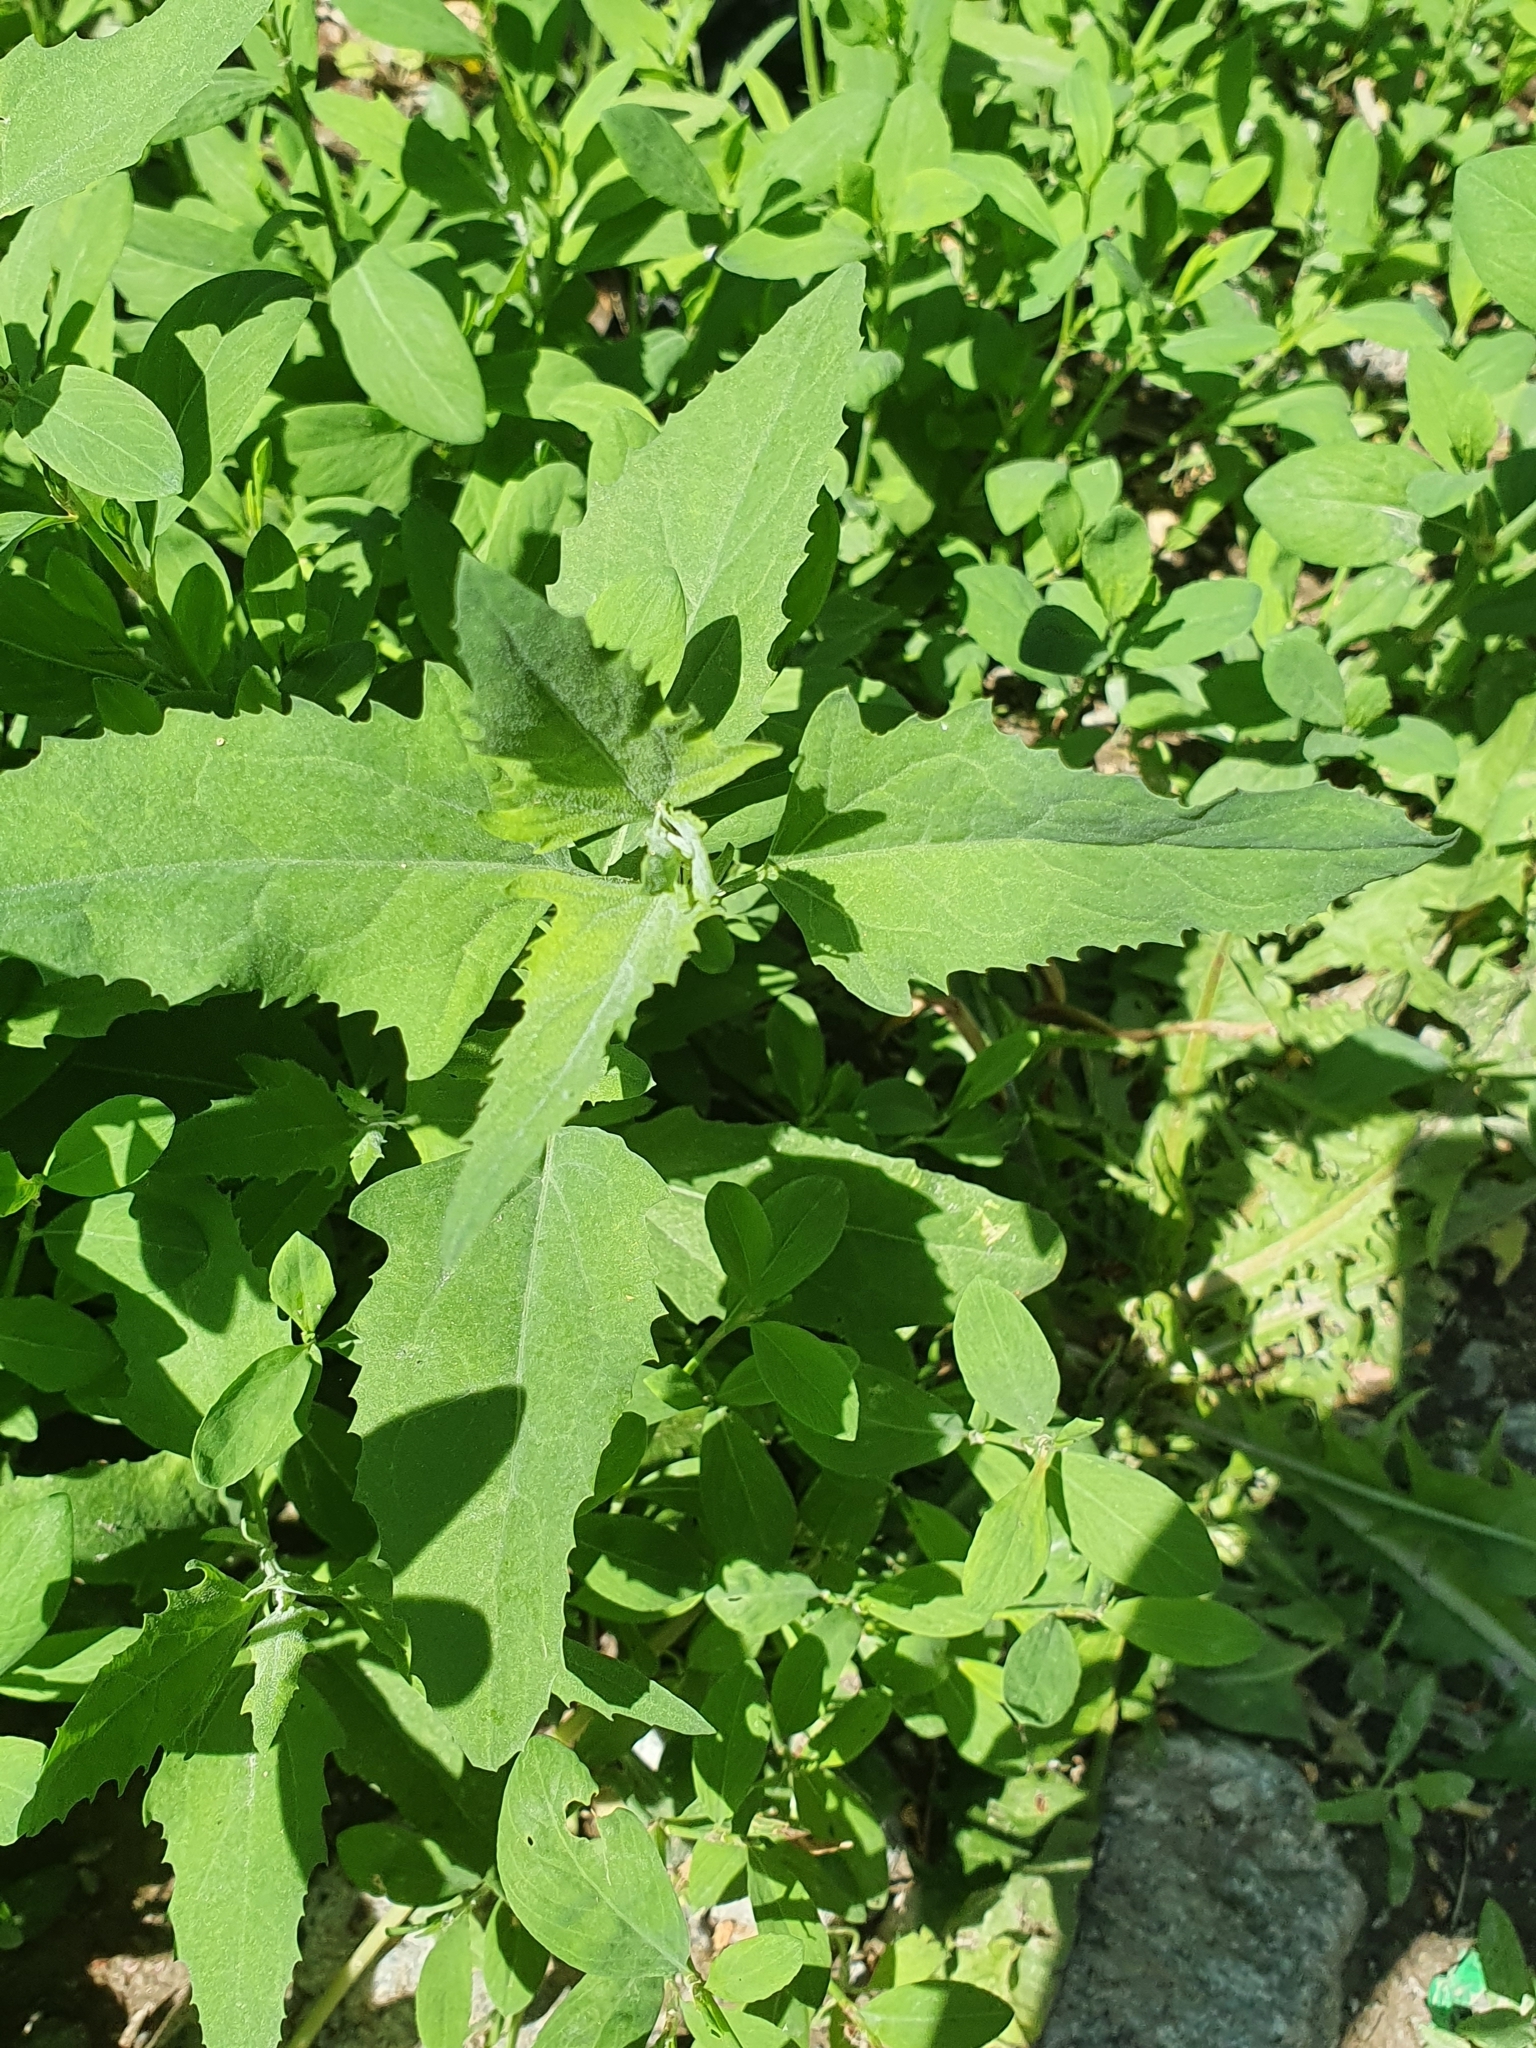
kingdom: Plantae
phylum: Tracheophyta
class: Magnoliopsida
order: Caryophyllales
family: Amaranthaceae
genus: Chenopodium
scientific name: Chenopodium album
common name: Fat-hen
